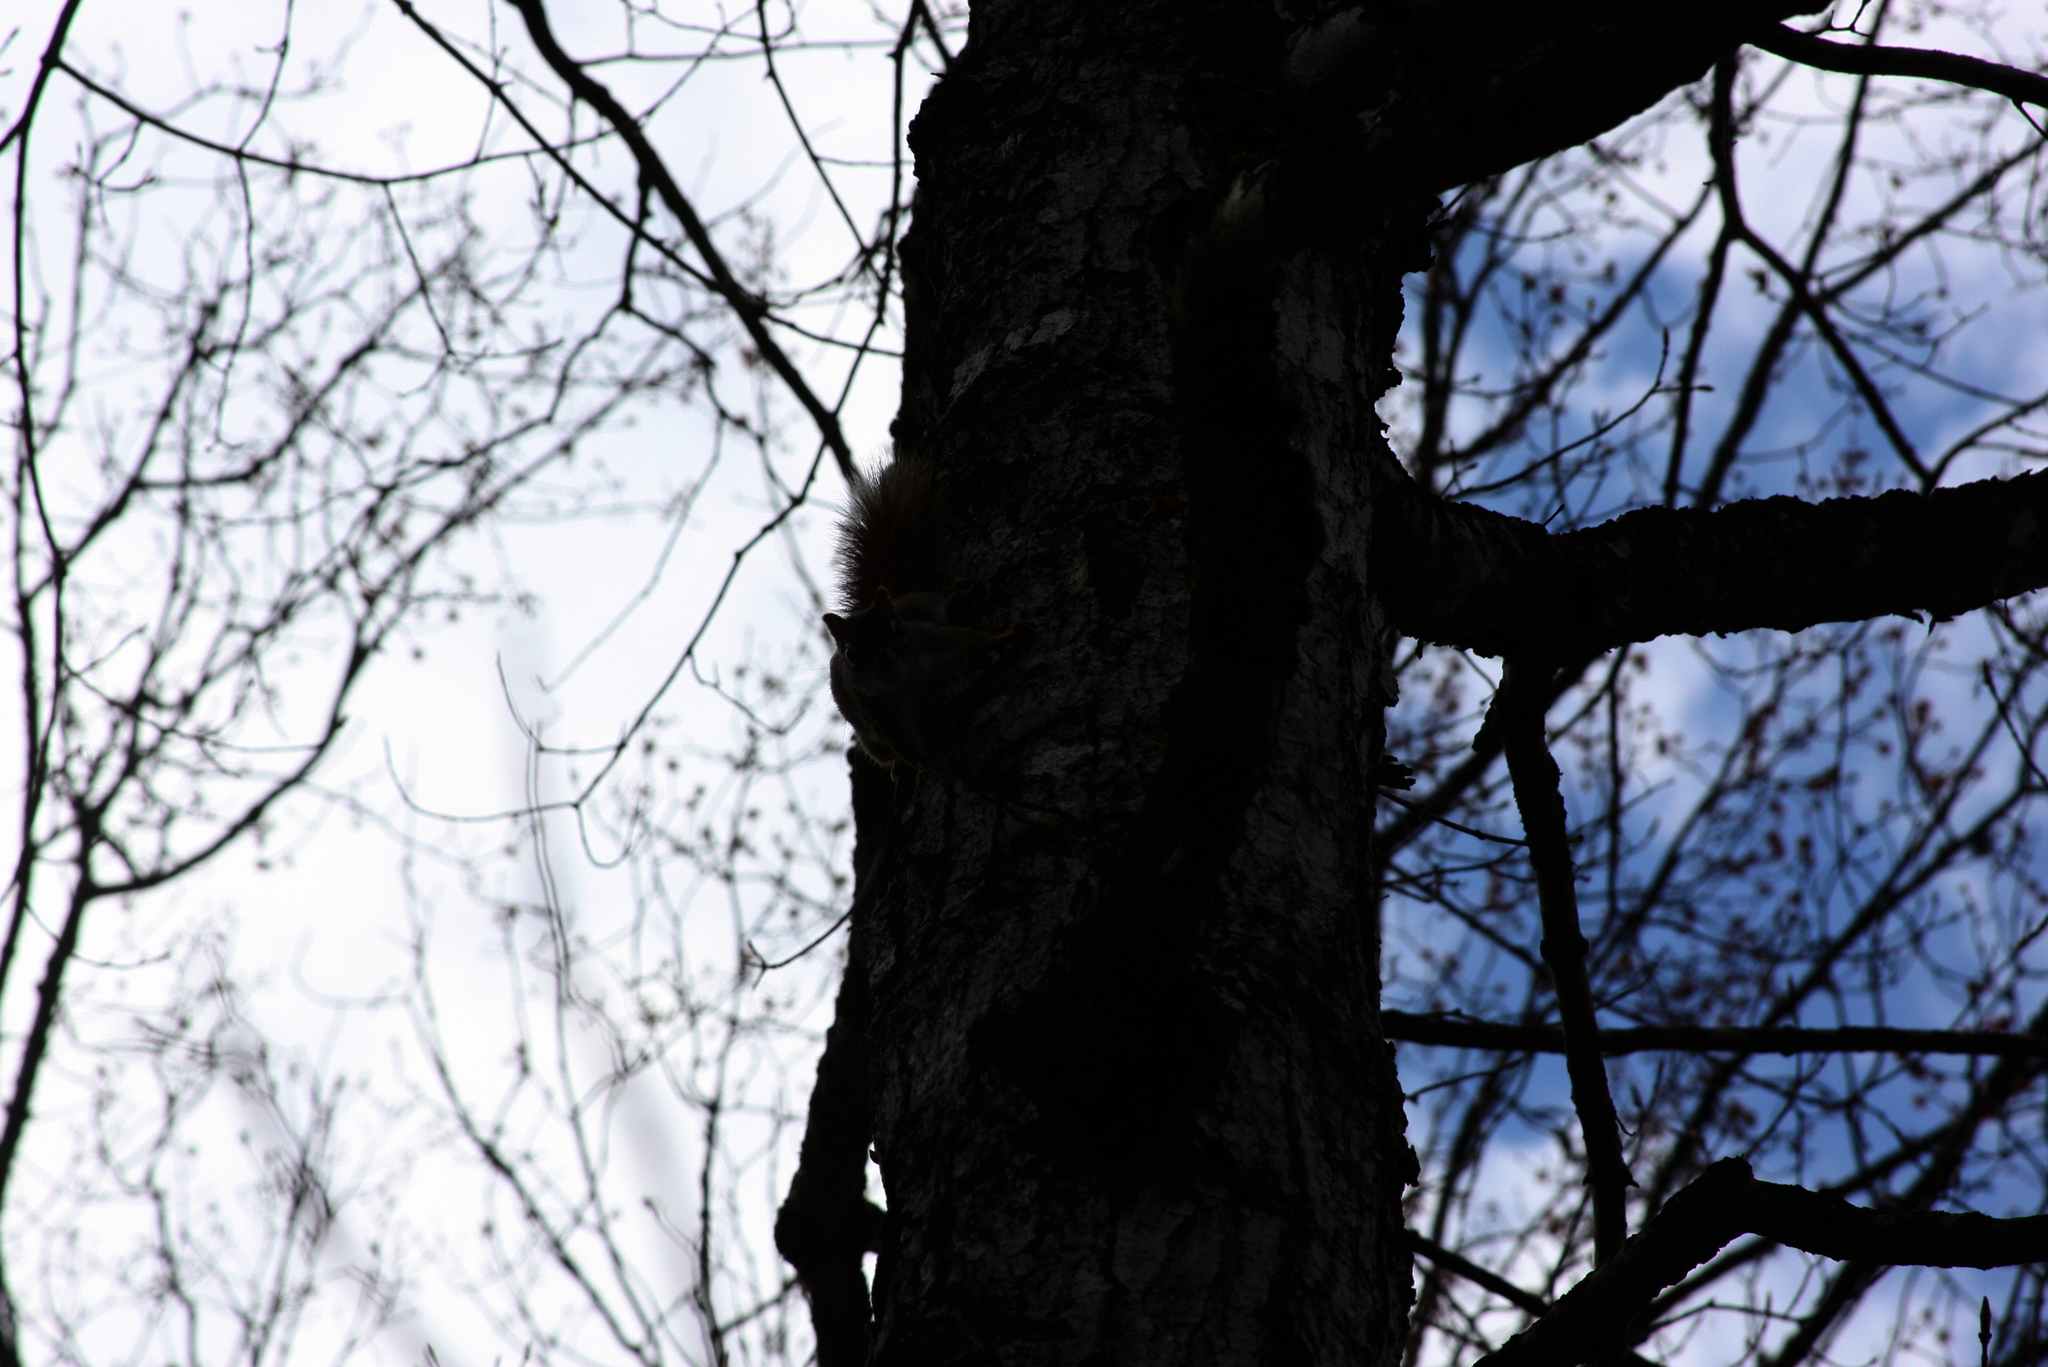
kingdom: Animalia
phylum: Chordata
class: Mammalia
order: Rodentia
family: Sciuridae
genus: Tamiasciurus
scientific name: Tamiasciurus hudsonicus
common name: Red squirrel
